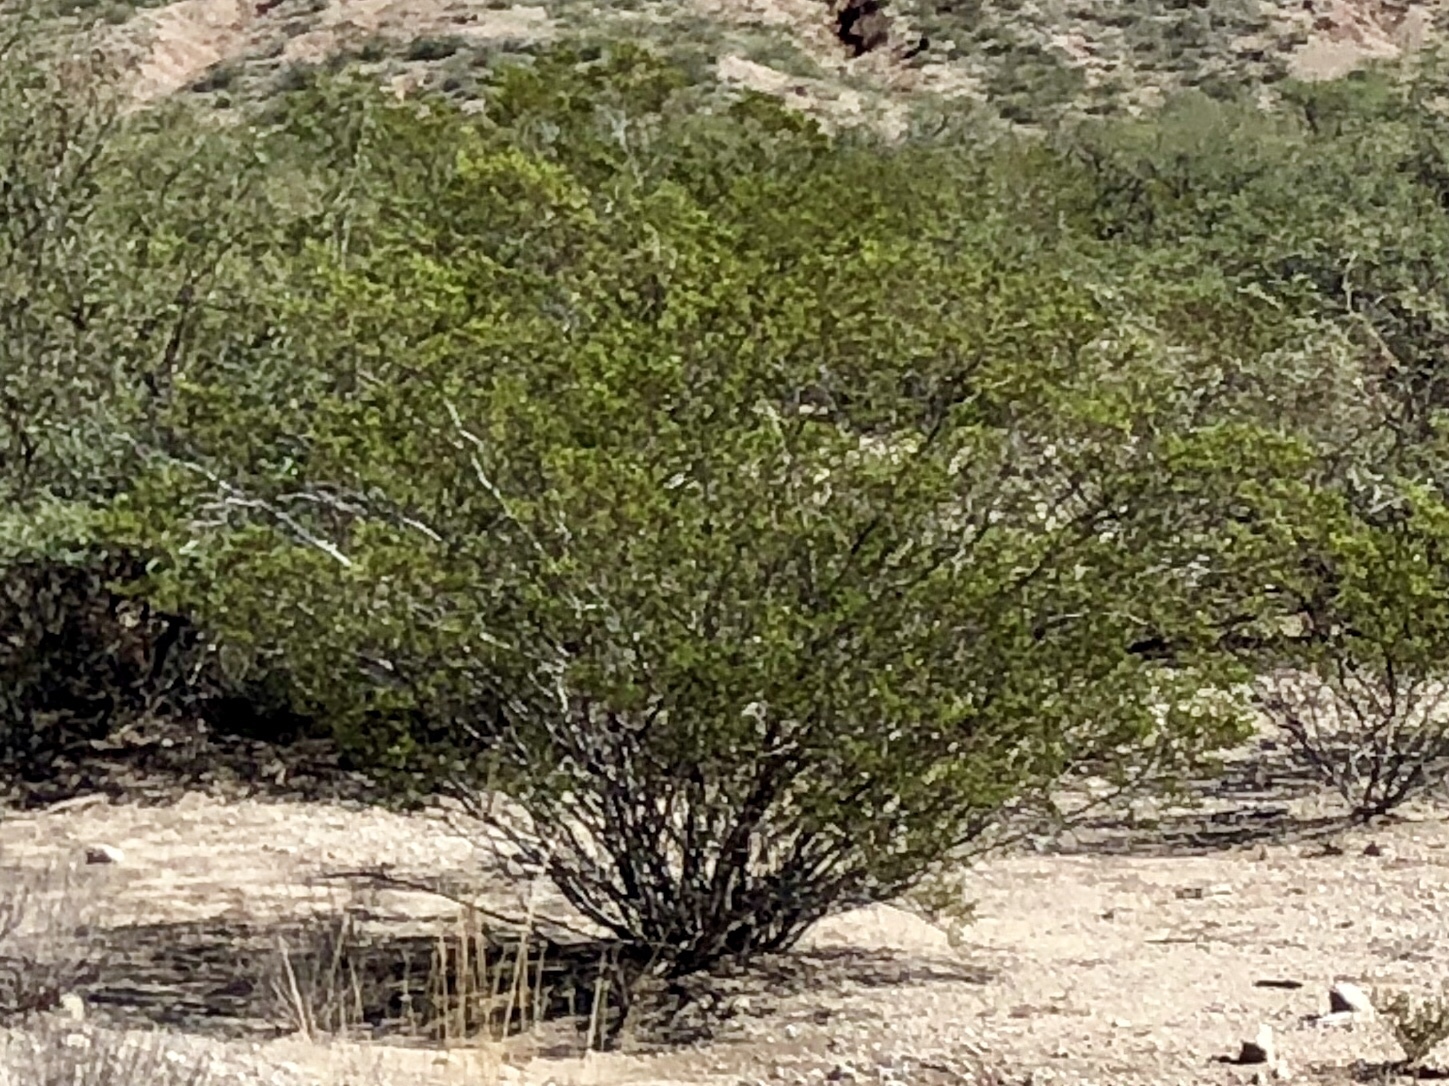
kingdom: Plantae
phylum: Tracheophyta
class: Magnoliopsida
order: Zygophyllales
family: Zygophyllaceae
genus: Larrea
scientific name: Larrea tridentata
